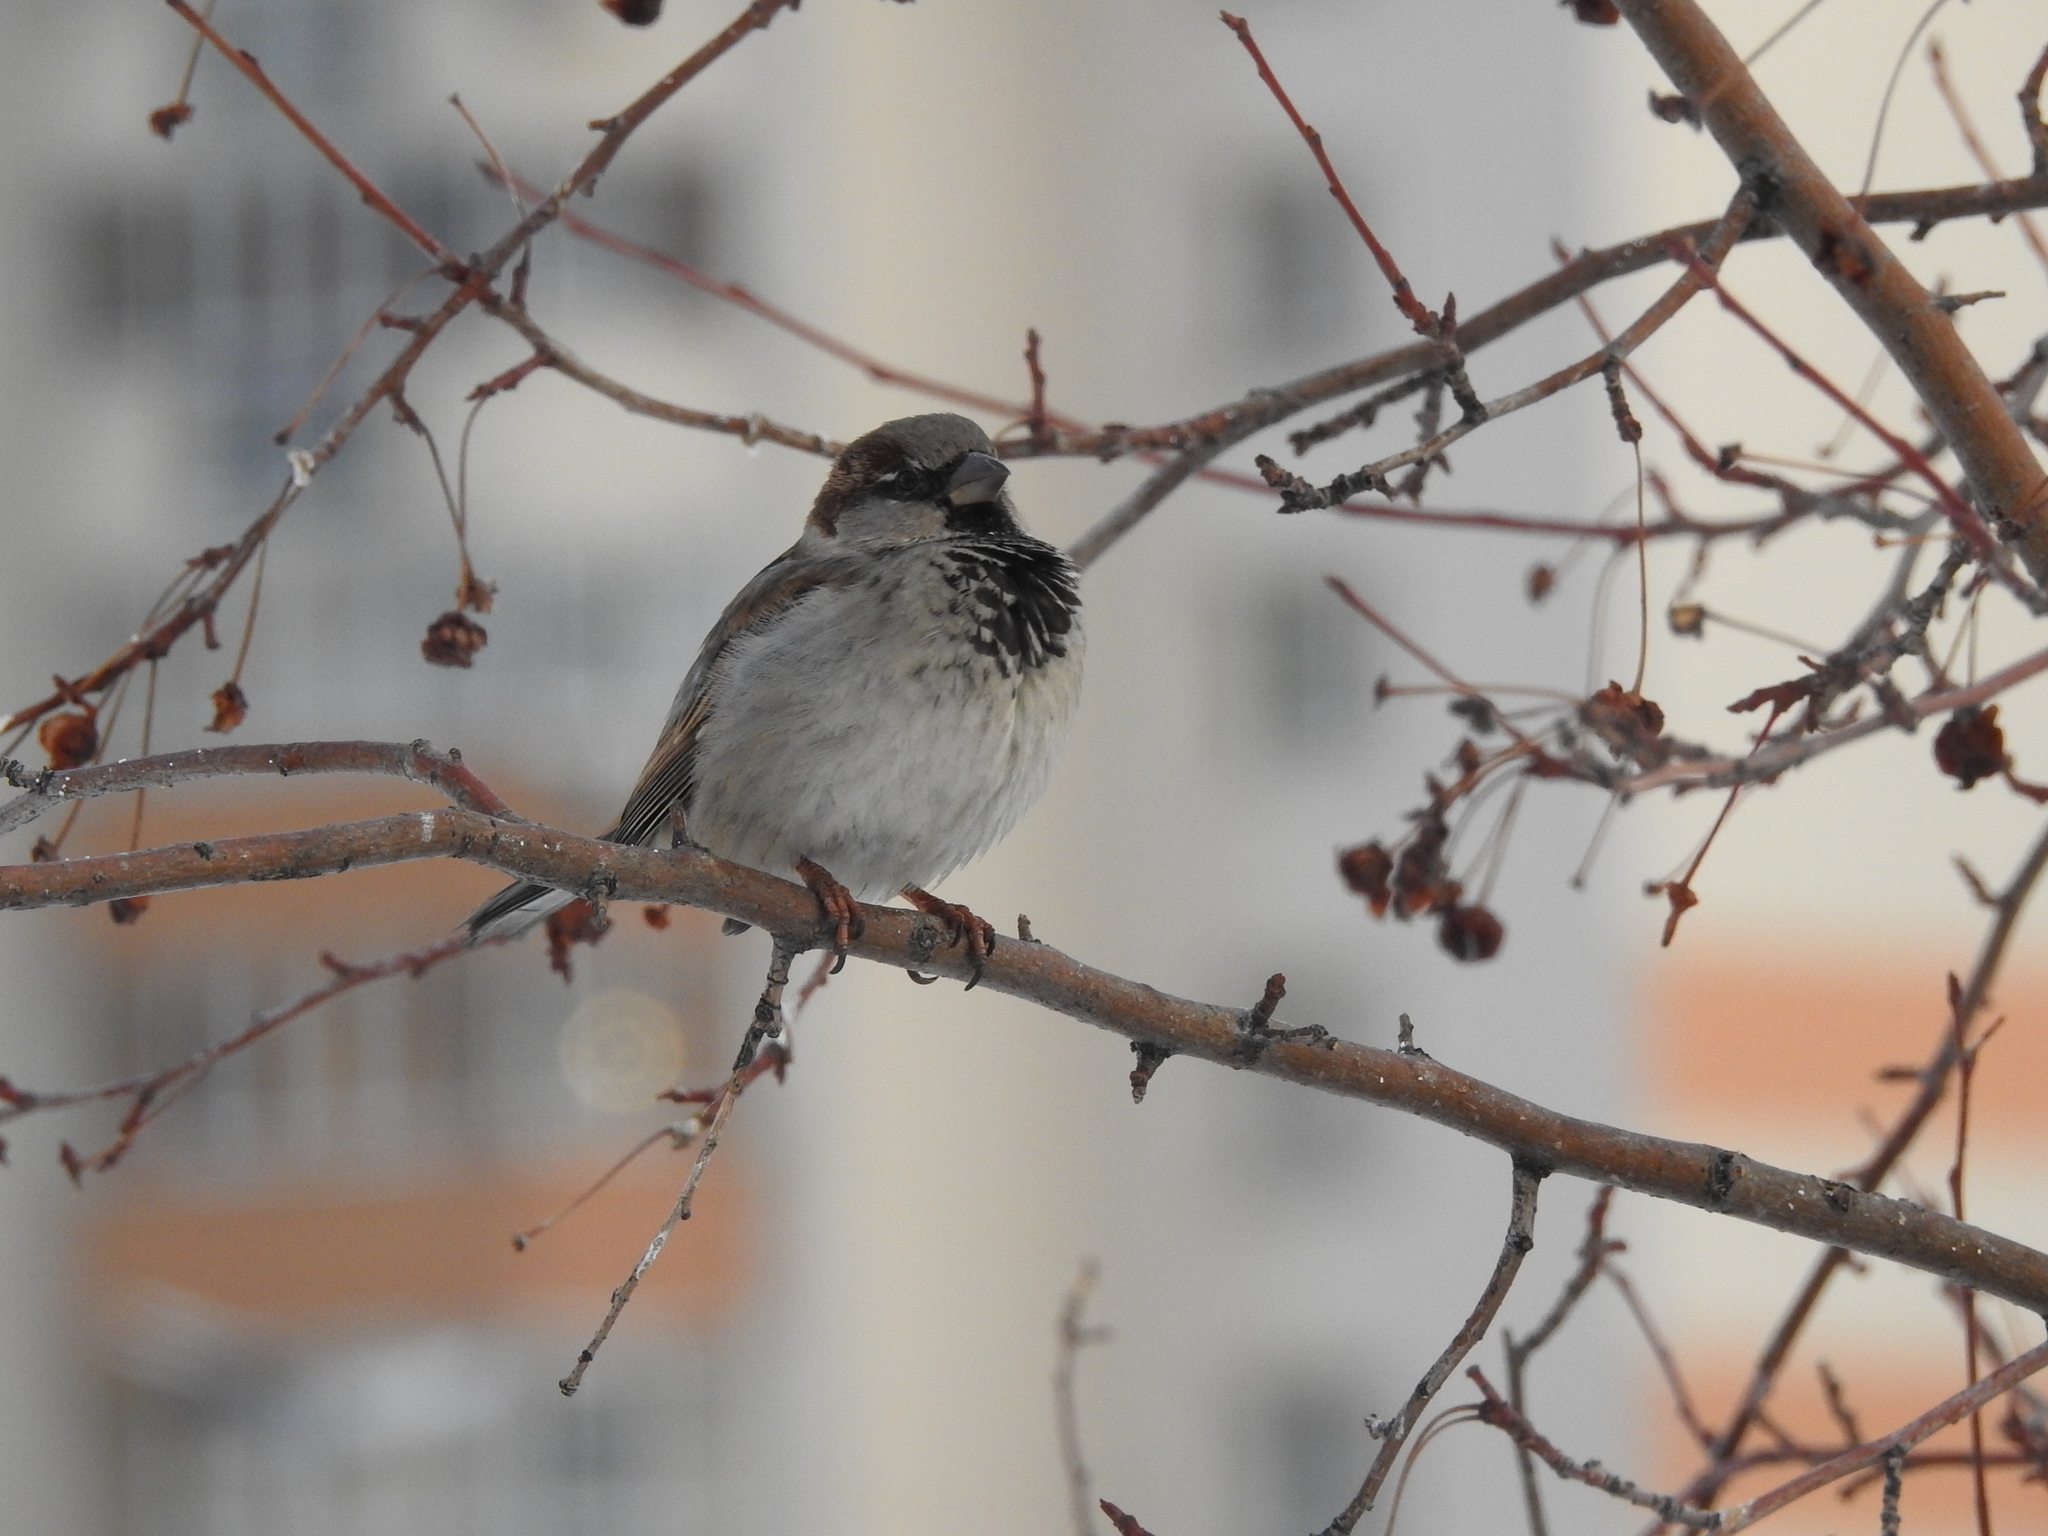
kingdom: Animalia
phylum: Chordata
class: Aves
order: Passeriformes
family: Passeridae
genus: Passer
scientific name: Passer domesticus
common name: House sparrow
